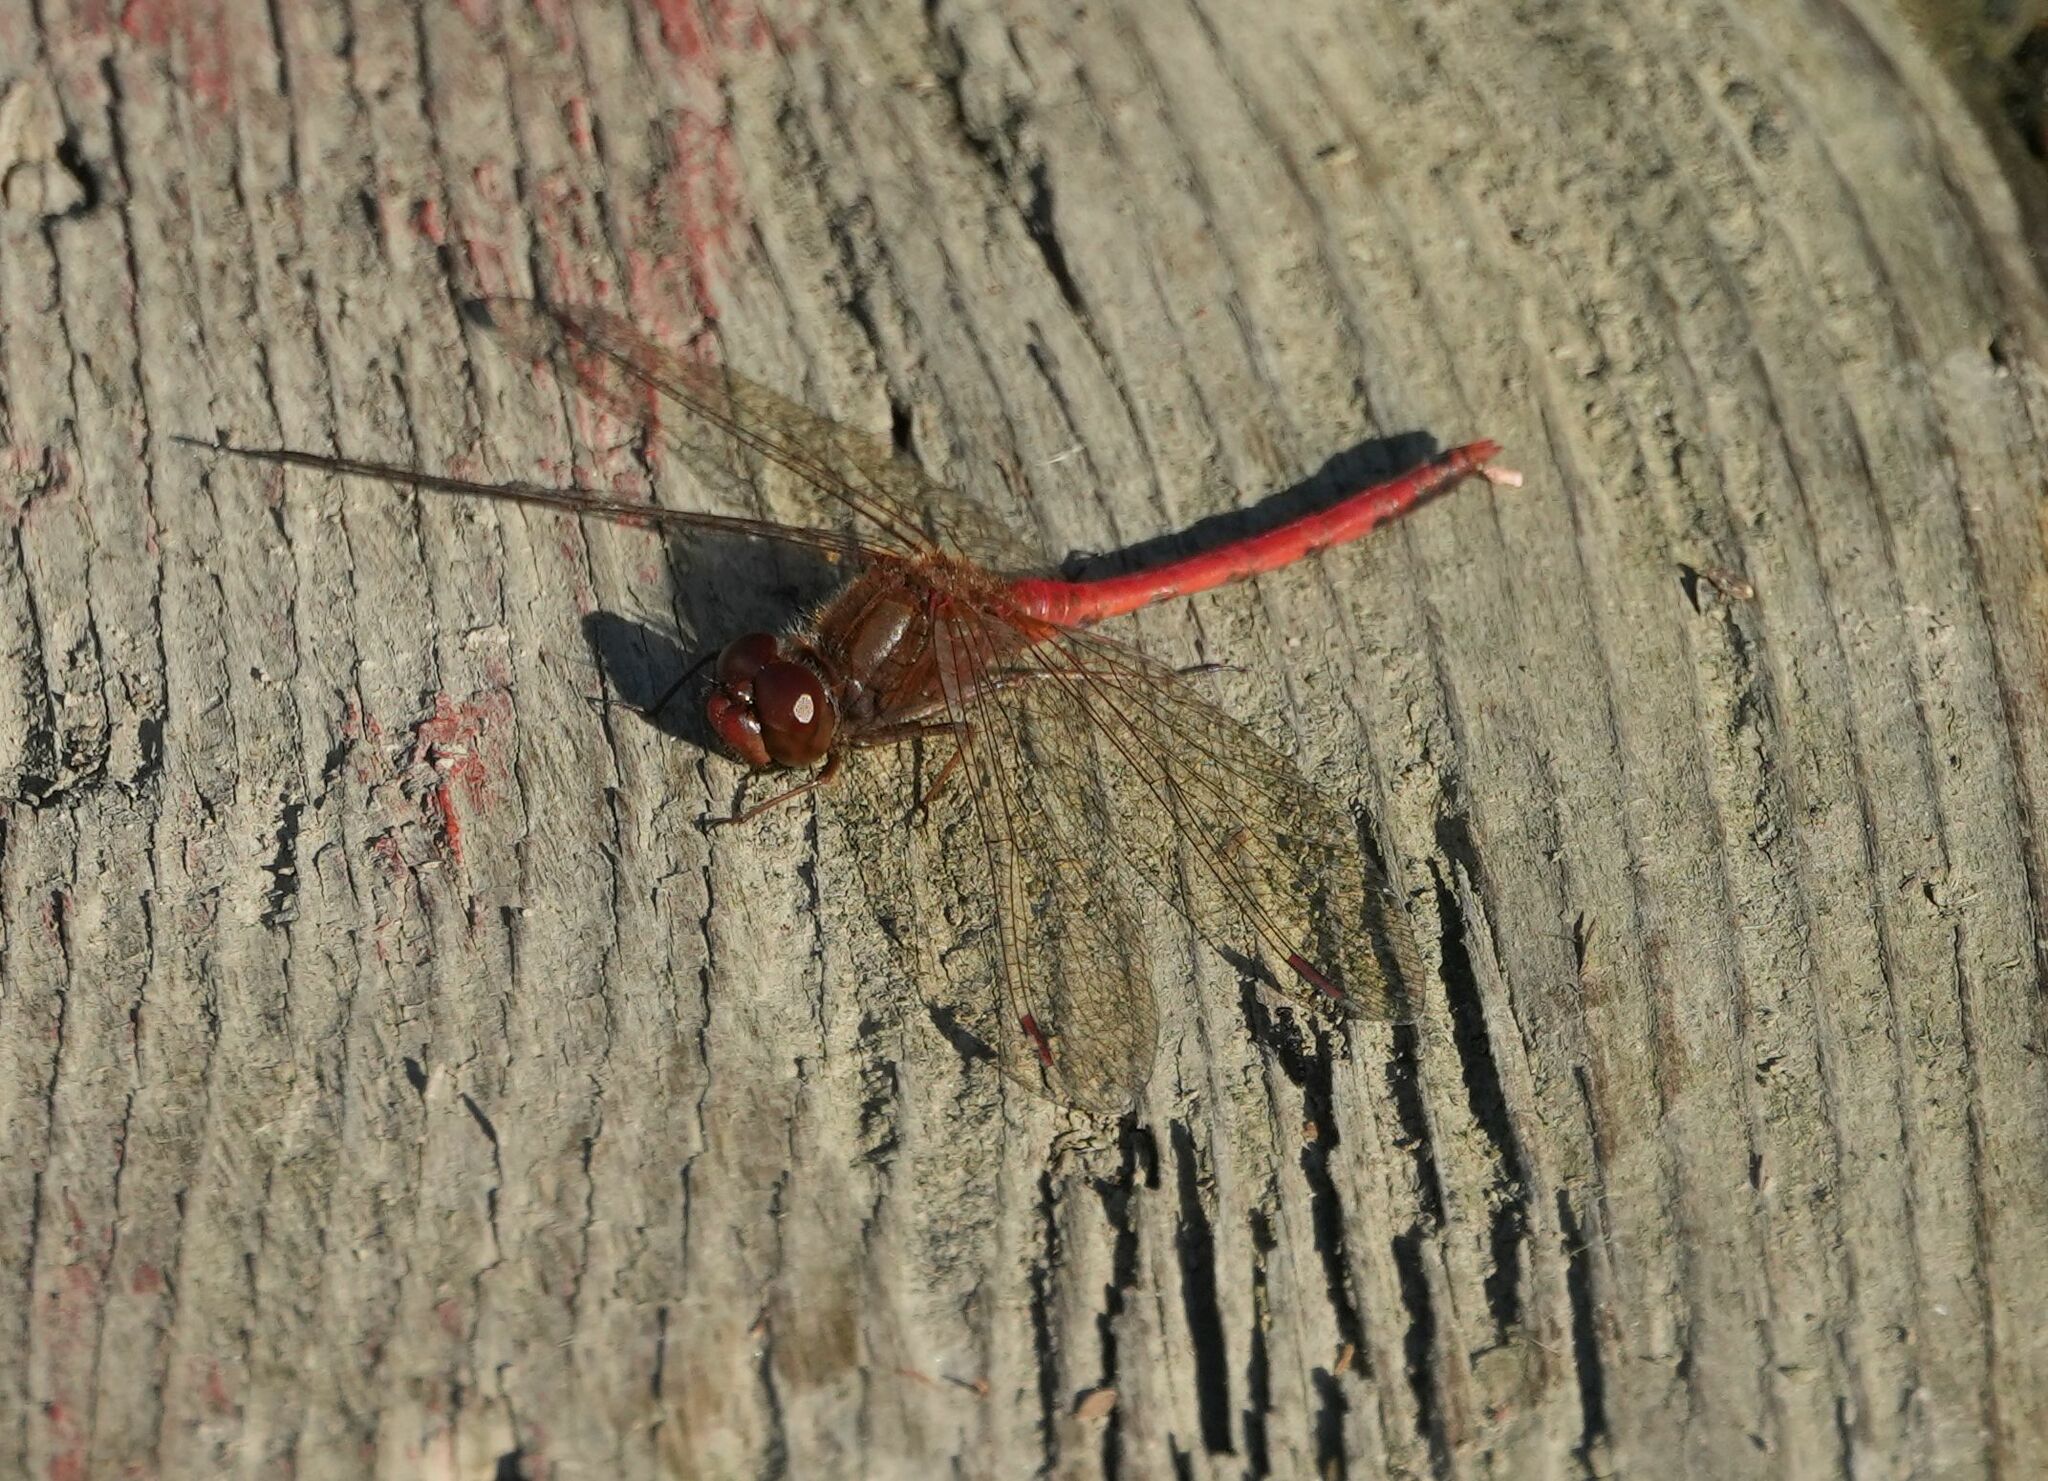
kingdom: Animalia
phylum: Arthropoda
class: Insecta
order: Odonata
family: Libellulidae
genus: Sympetrum
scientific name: Sympetrum vicinum
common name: Autumn meadowhawk
